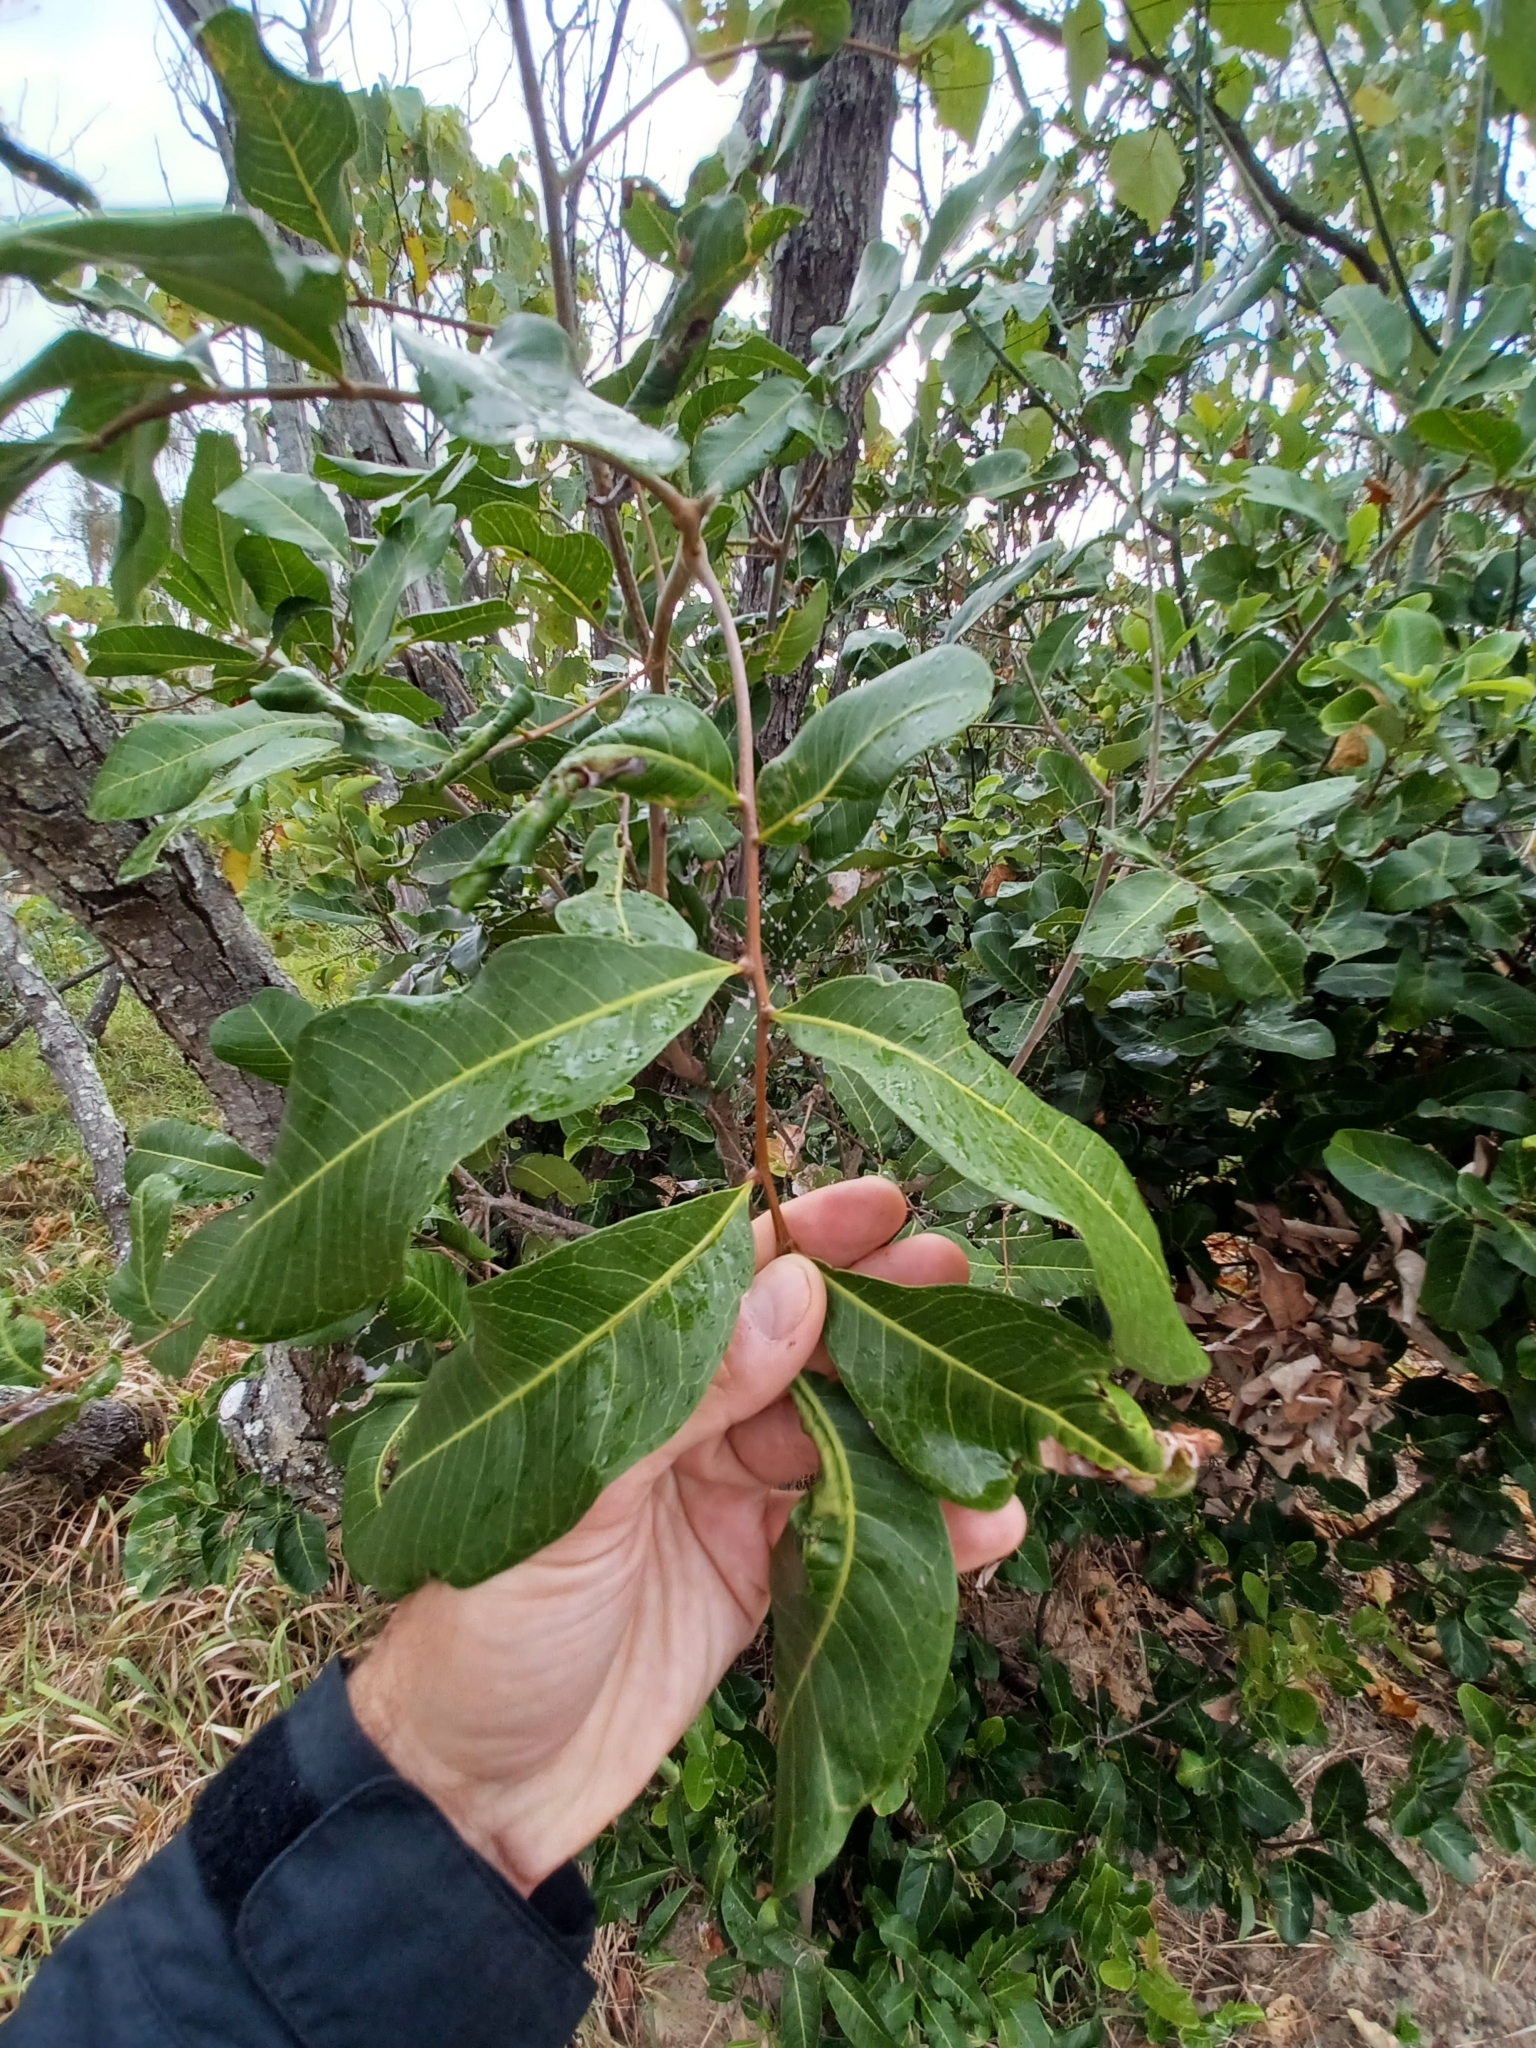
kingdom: Plantae
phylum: Tracheophyta
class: Magnoliopsida
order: Sapindales
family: Sapindaceae
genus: Cupaniopsis
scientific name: Cupaniopsis anacardioides
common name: Carrotwood
